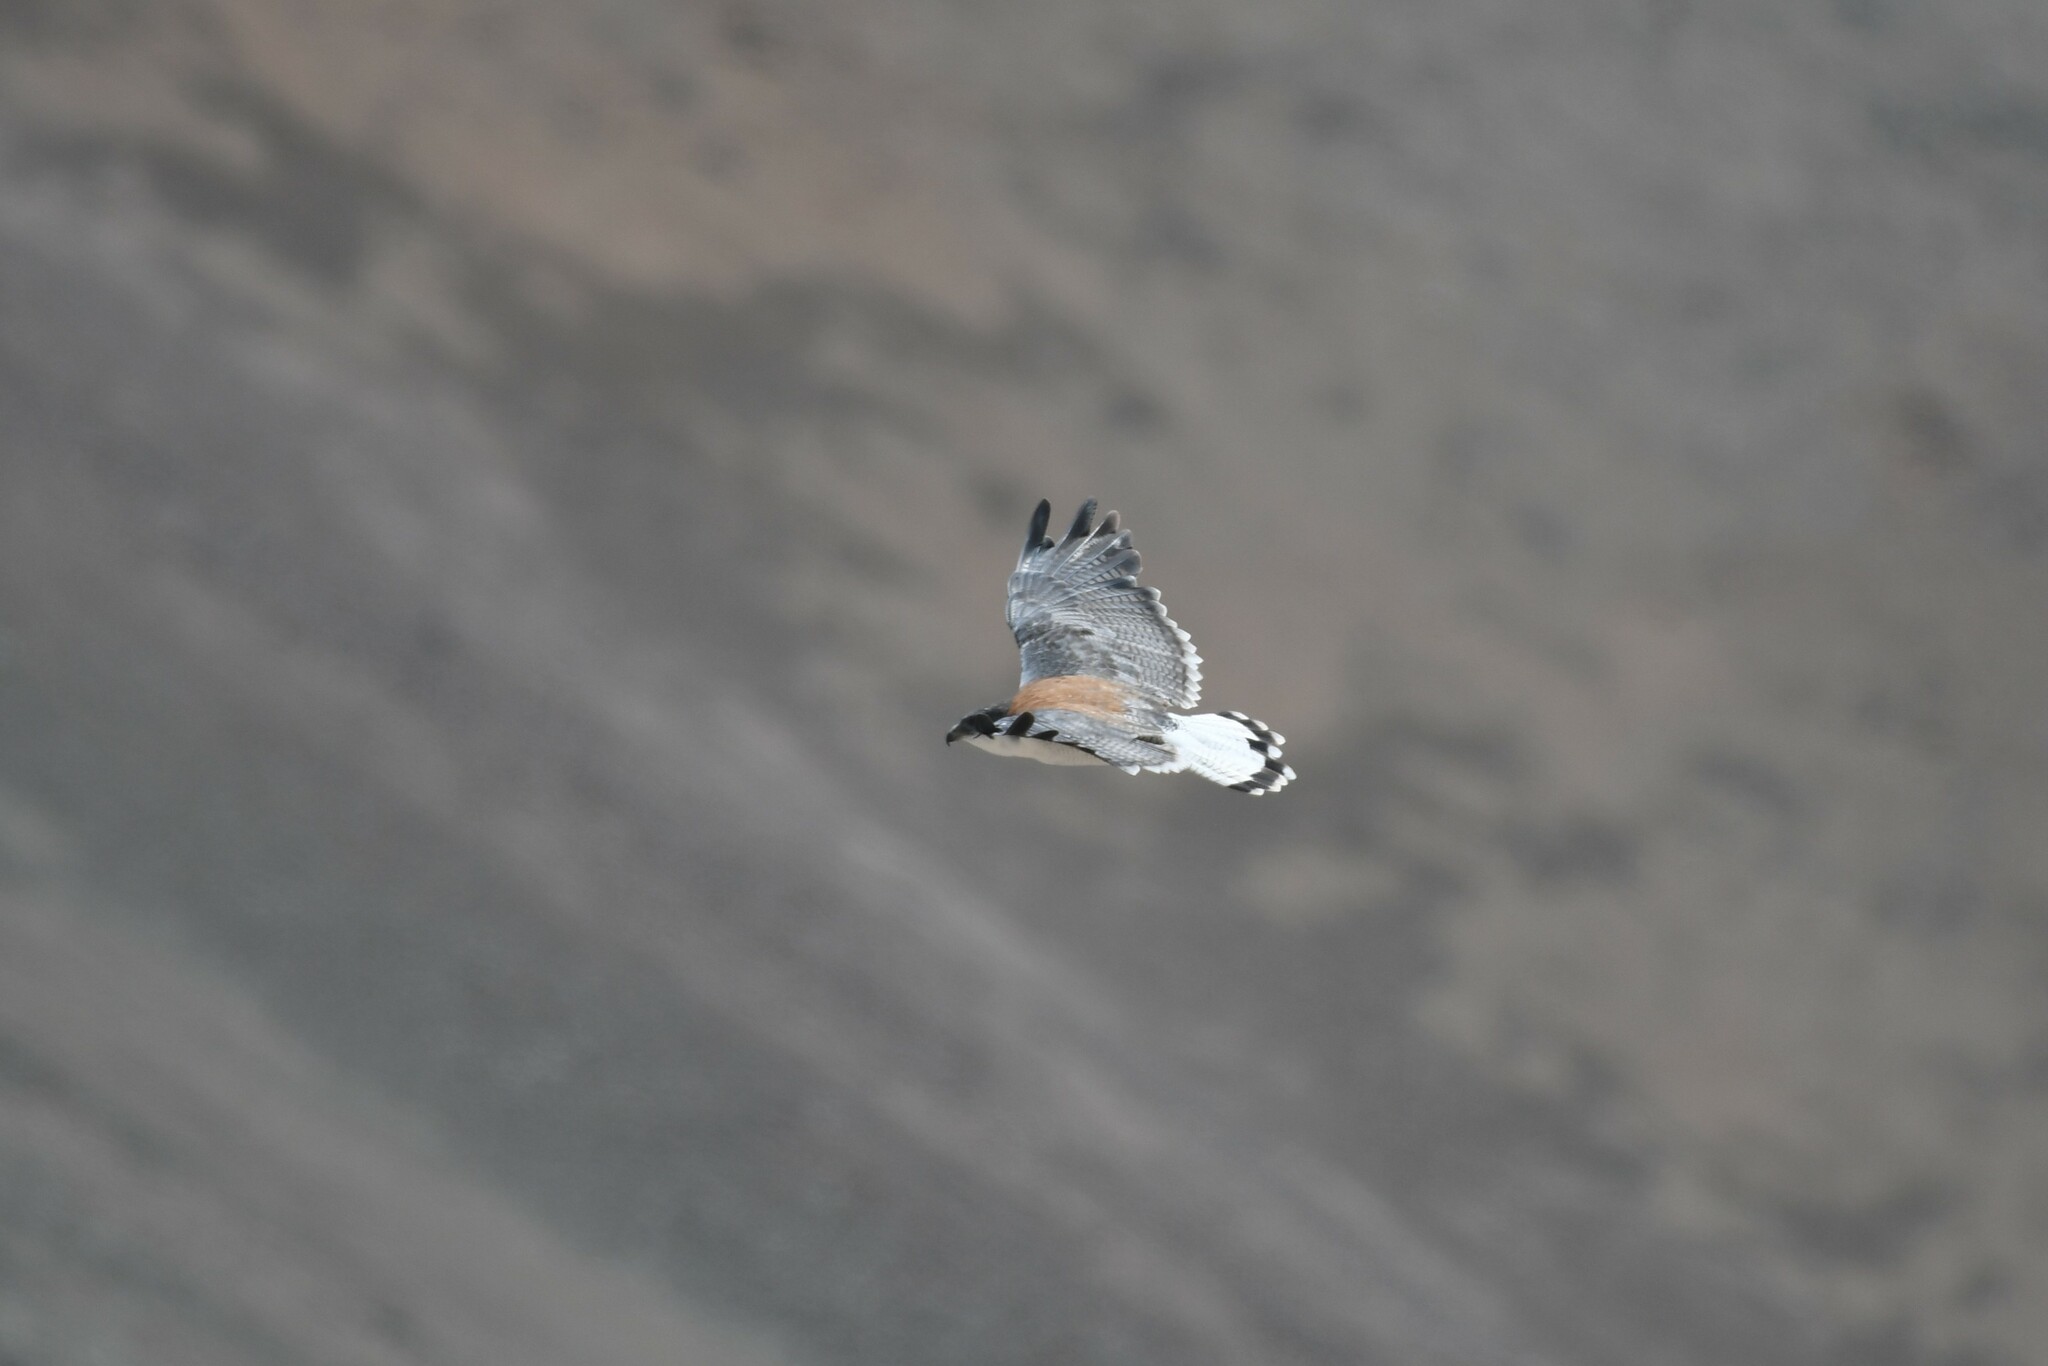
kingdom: Animalia
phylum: Chordata
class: Aves
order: Accipitriformes
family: Accipitridae
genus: Buteo
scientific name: Buteo polyosoma
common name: Variable hawk
